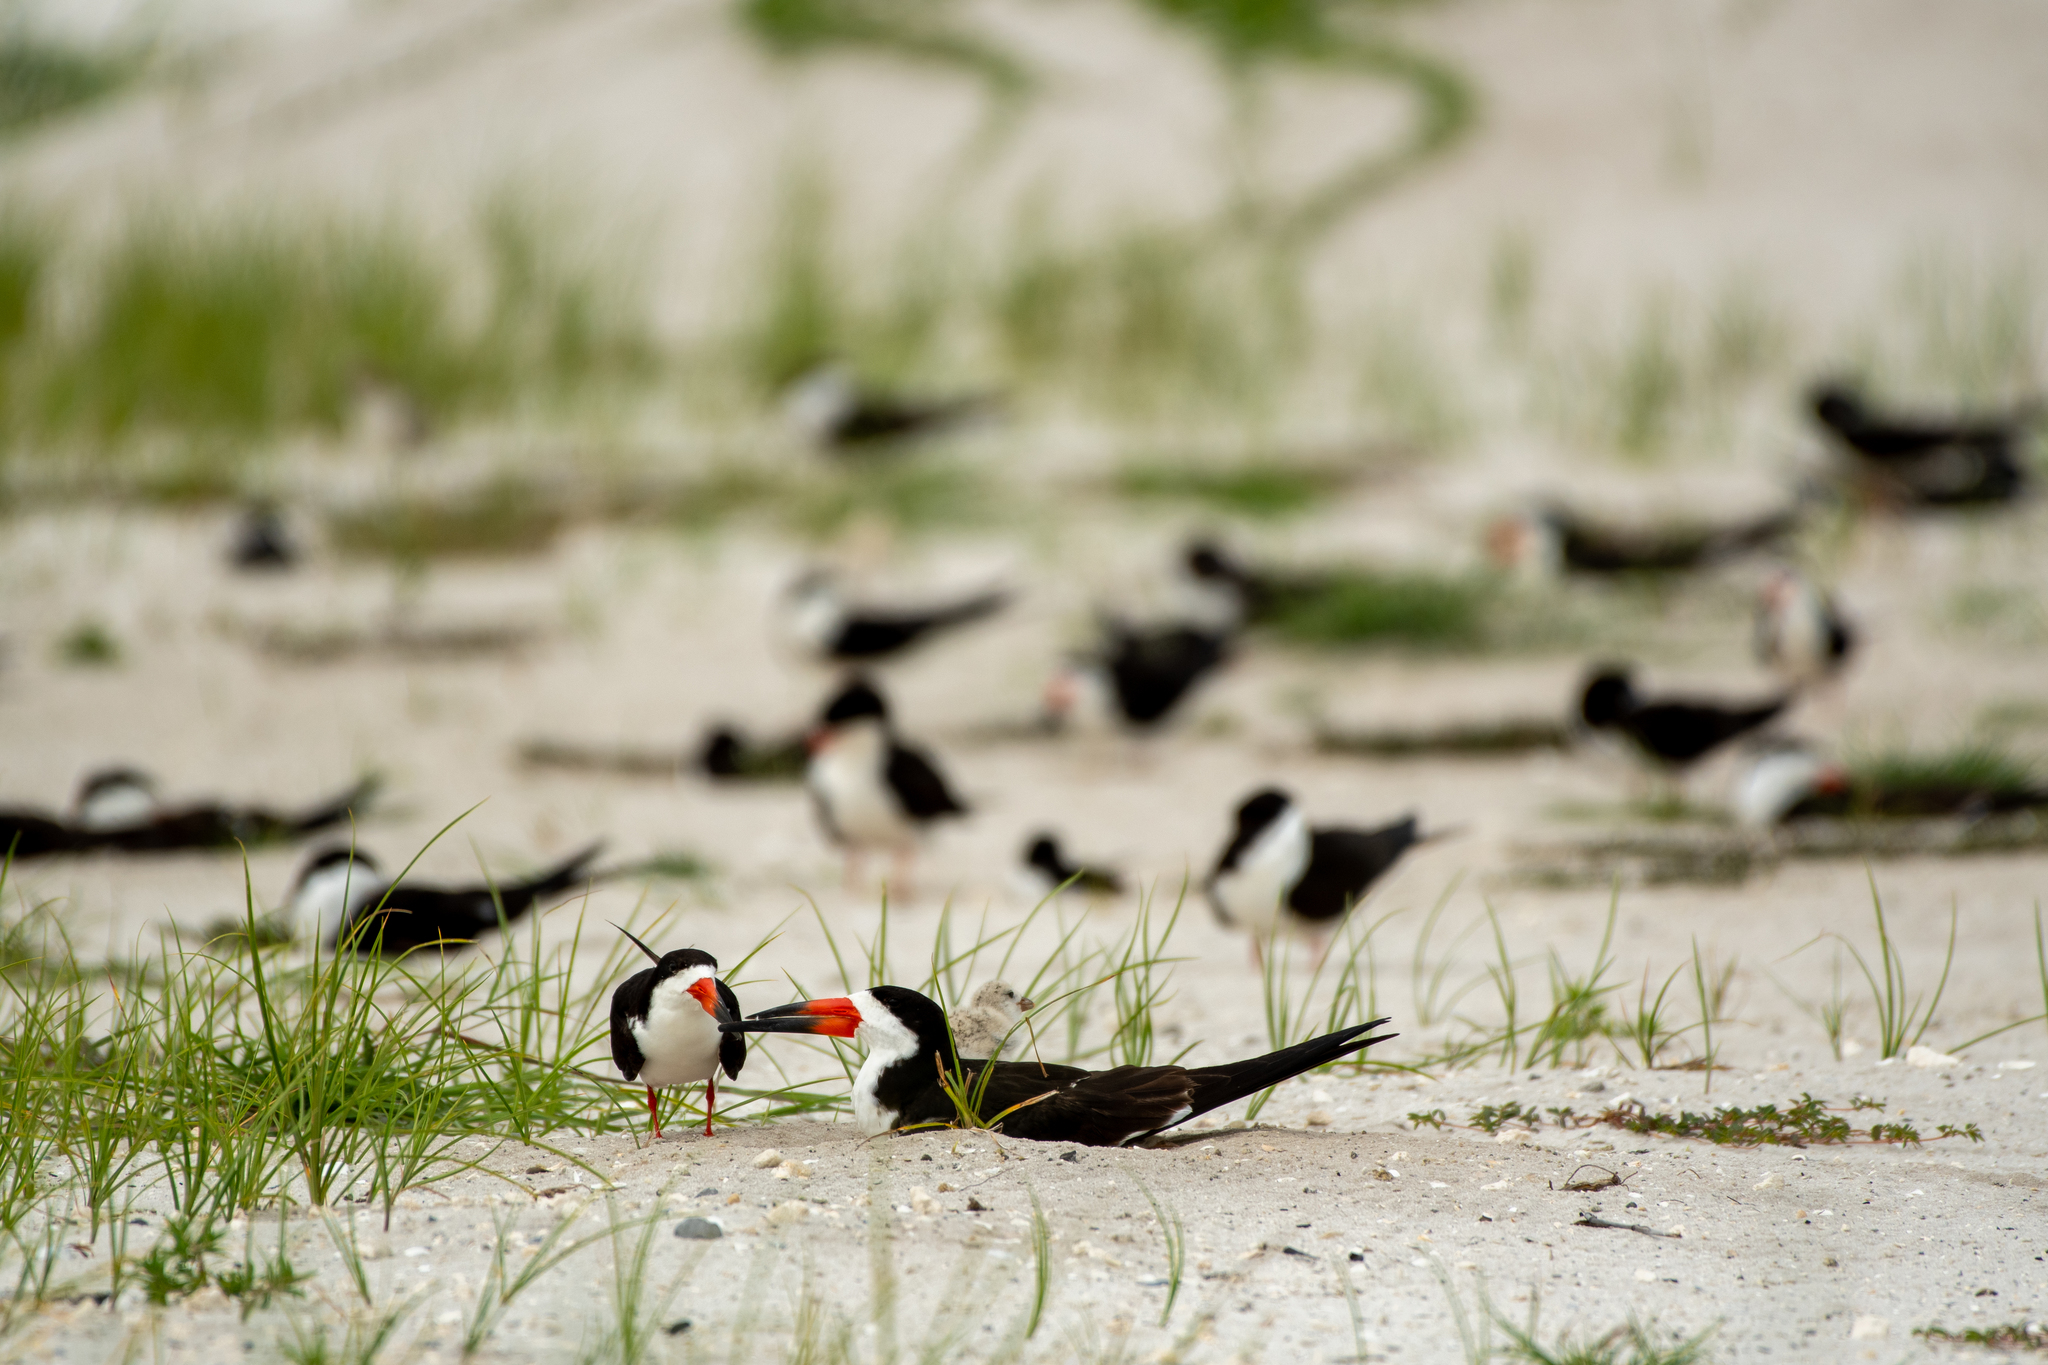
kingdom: Animalia
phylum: Chordata
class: Aves
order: Charadriiformes
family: Laridae
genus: Rynchops
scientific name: Rynchops niger
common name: Black skimmer
